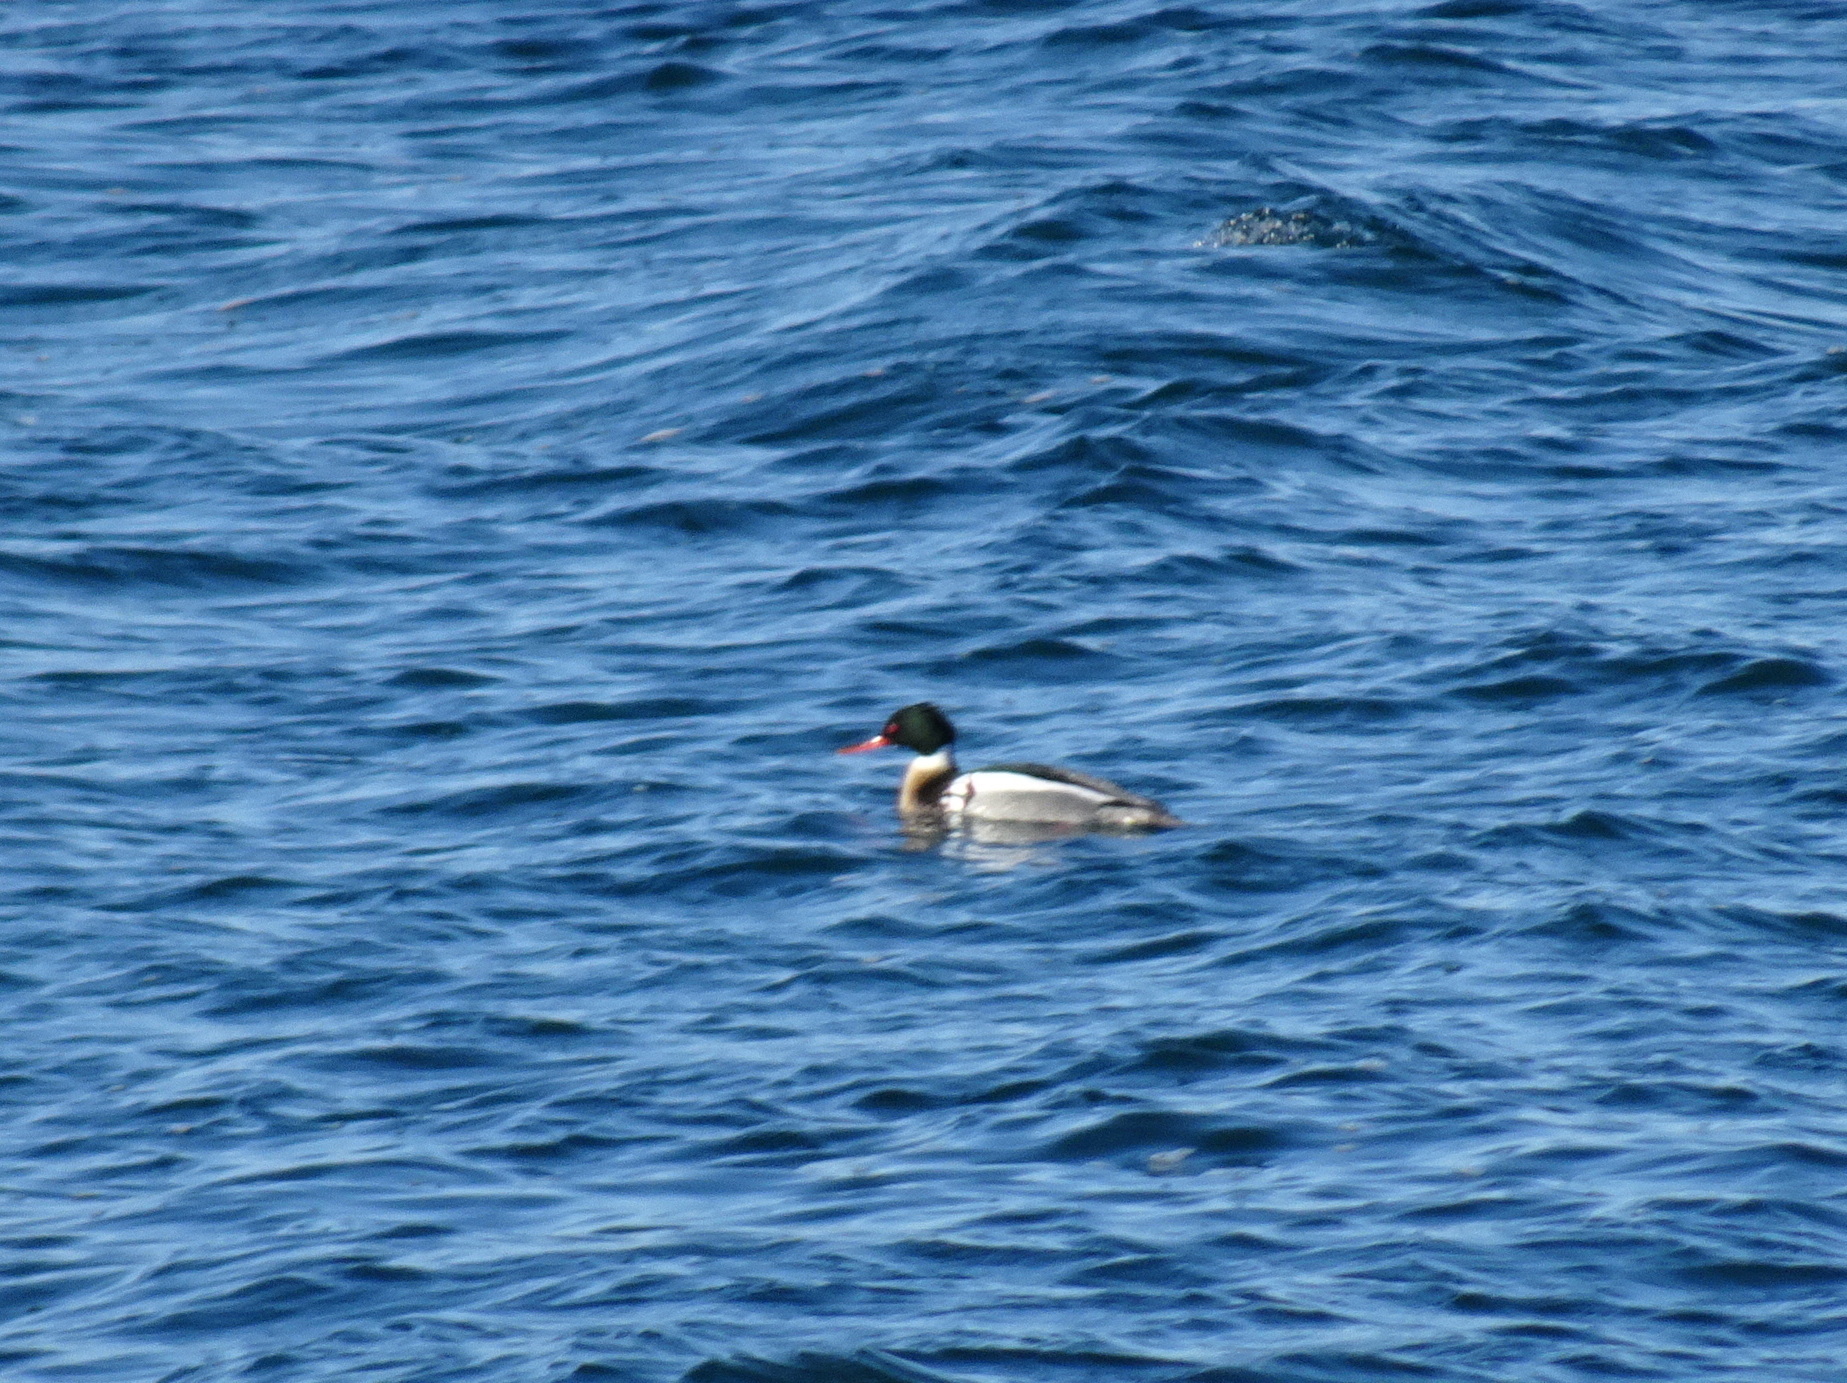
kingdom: Animalia
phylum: Chordata
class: Aves
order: Anseriformes
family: Anatidae
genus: Mergus
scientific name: Mergus serrator
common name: Red-breasted merganser
